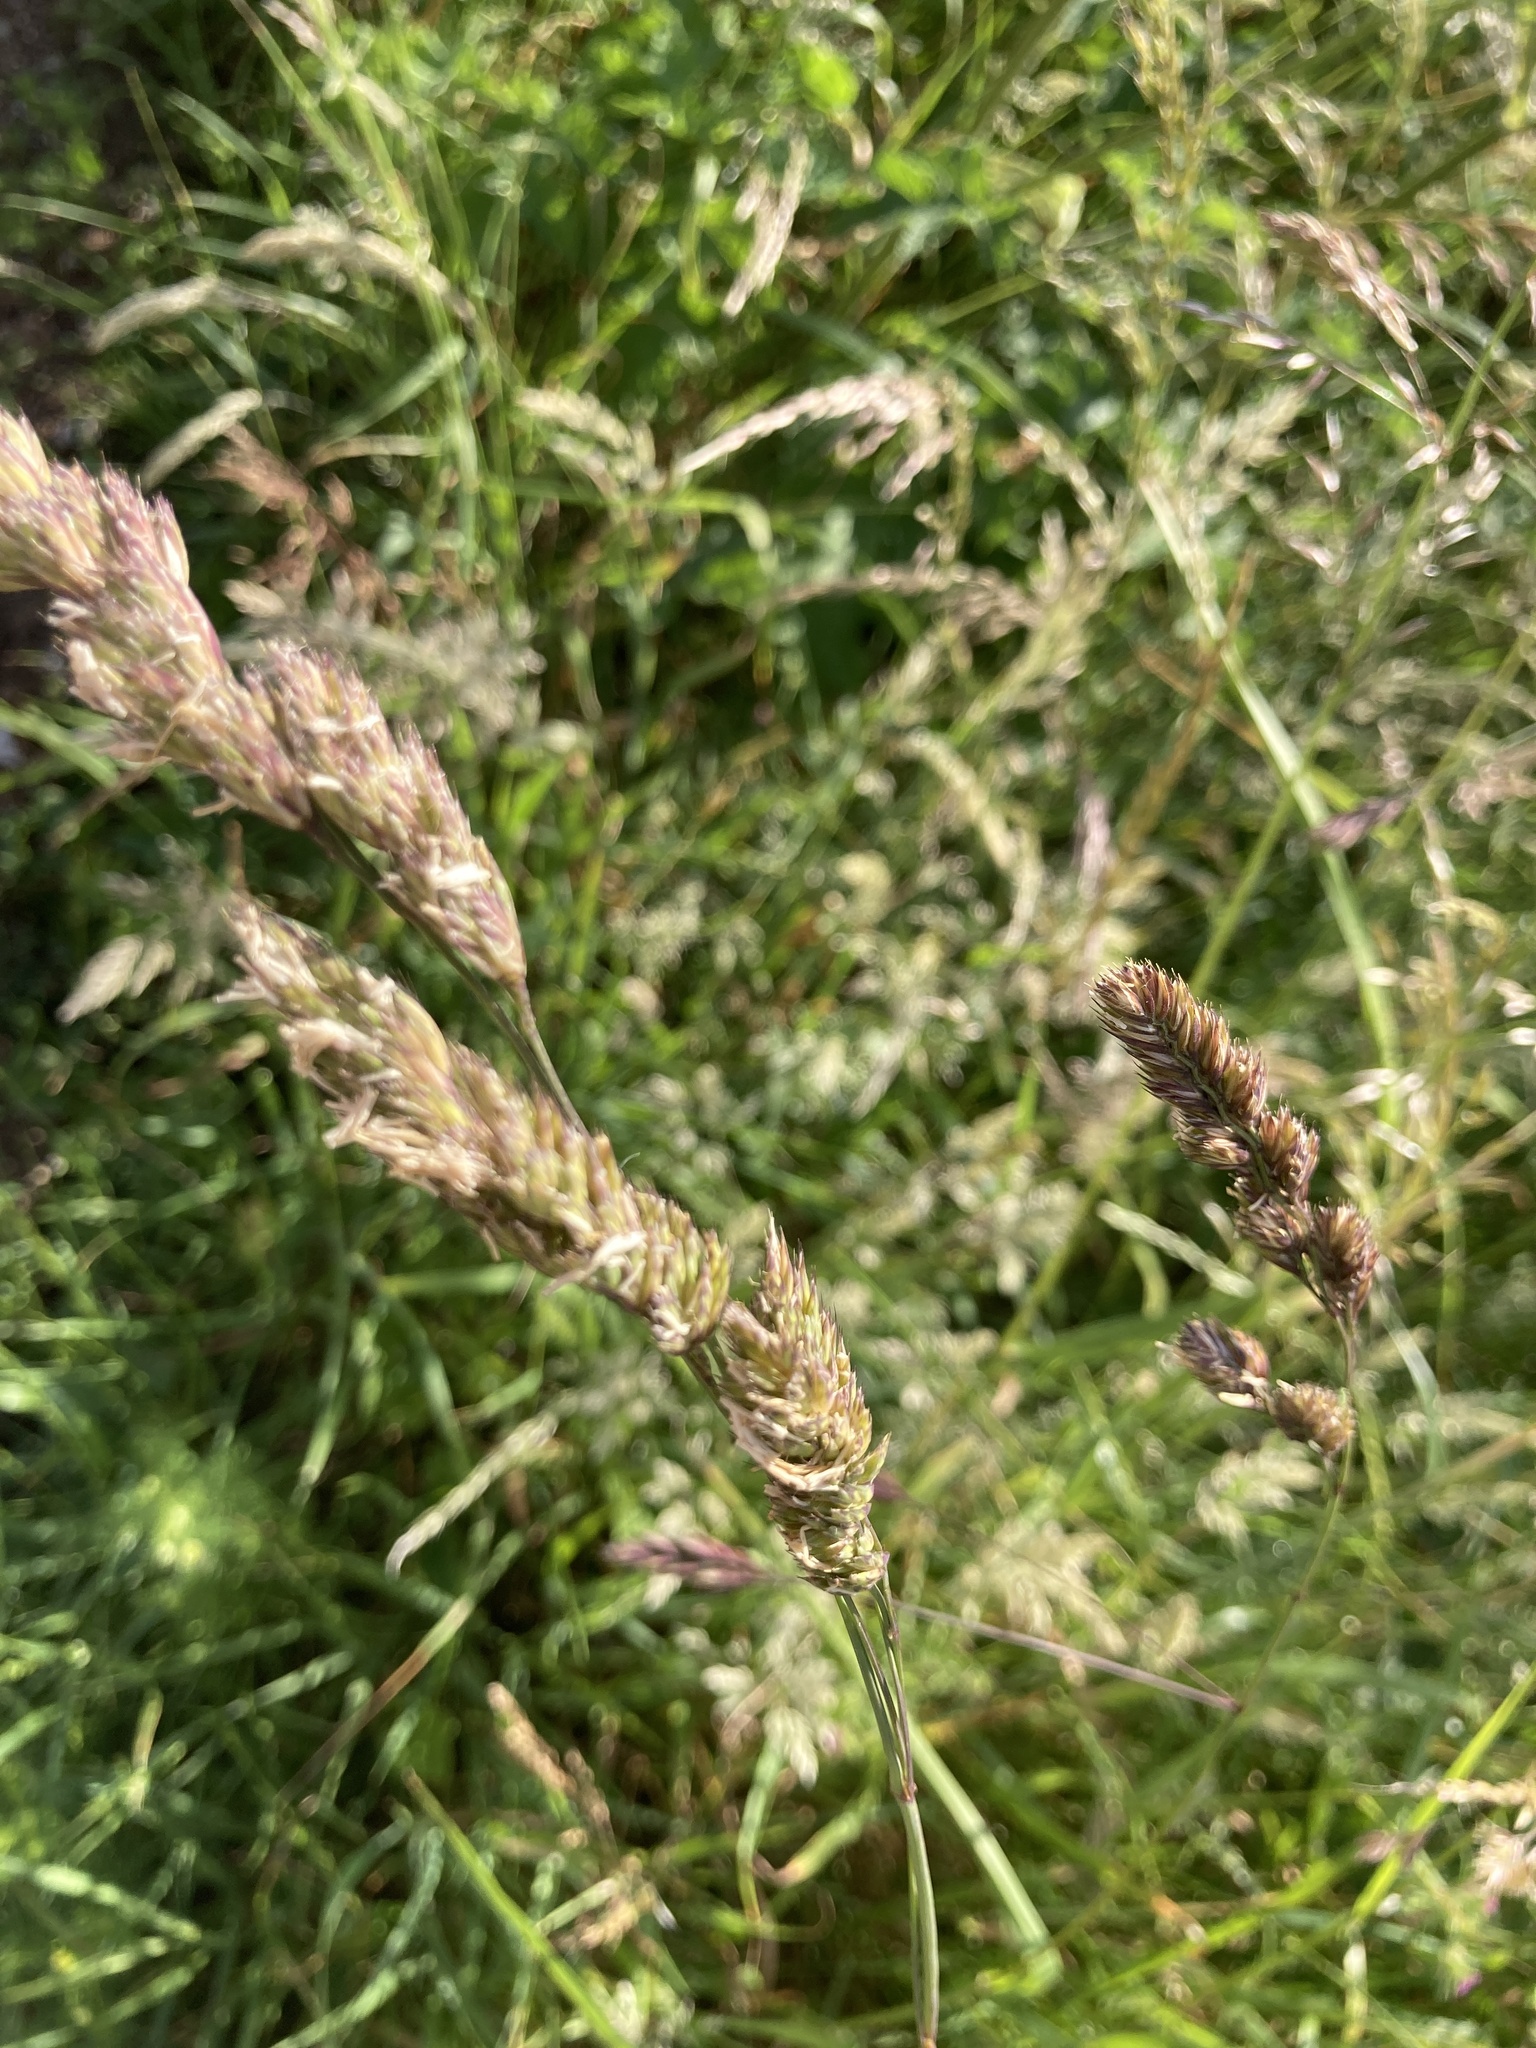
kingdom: Plantae
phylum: Tracheophyta
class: Liliopsida
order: Poales
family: Poaceae
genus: Dactylis
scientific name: Dactylis glomerata
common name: Orchardgrass
